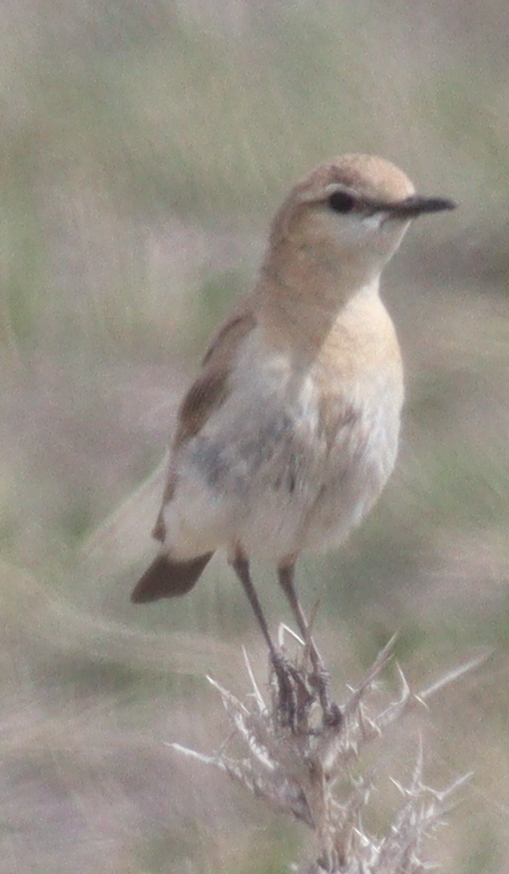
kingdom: Animalia
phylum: Chordata
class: Aves
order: Passeriformes
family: Muscicapidae
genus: Oenanthe
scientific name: Oenanthe isabellina
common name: Isabelline wheatear
